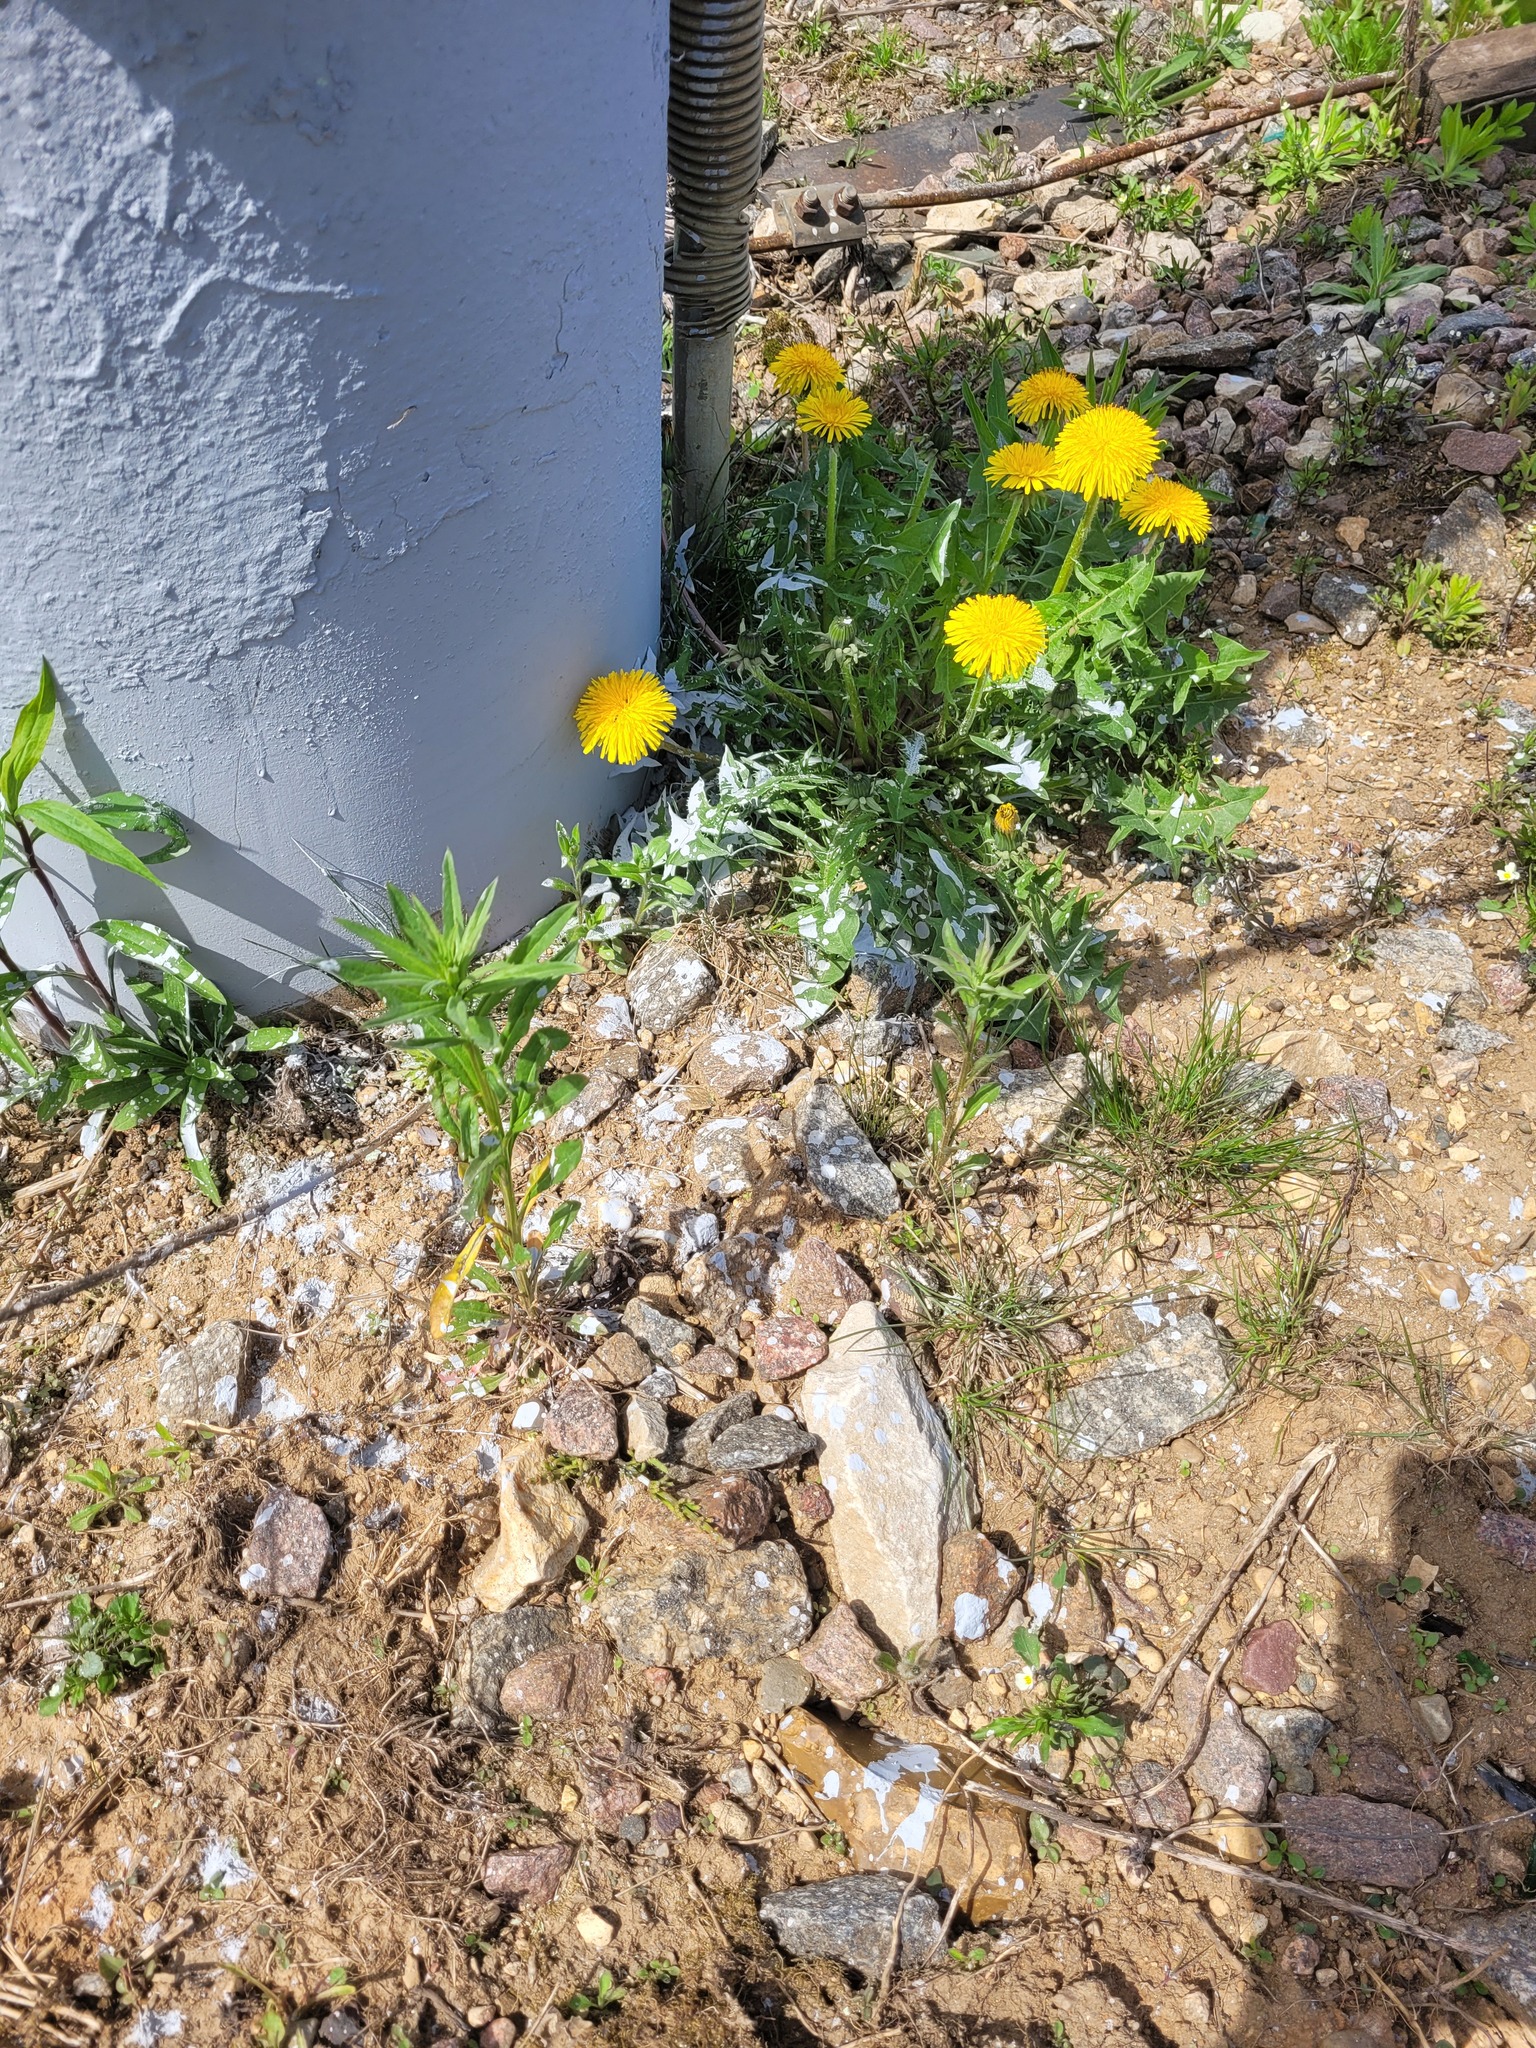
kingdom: Plantae
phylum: Tracheophyta
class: Magnoliopsida
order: Brassicales
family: Brassicaceae
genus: Erysimum
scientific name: Erysimum hieraciifolium
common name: European wallflower
